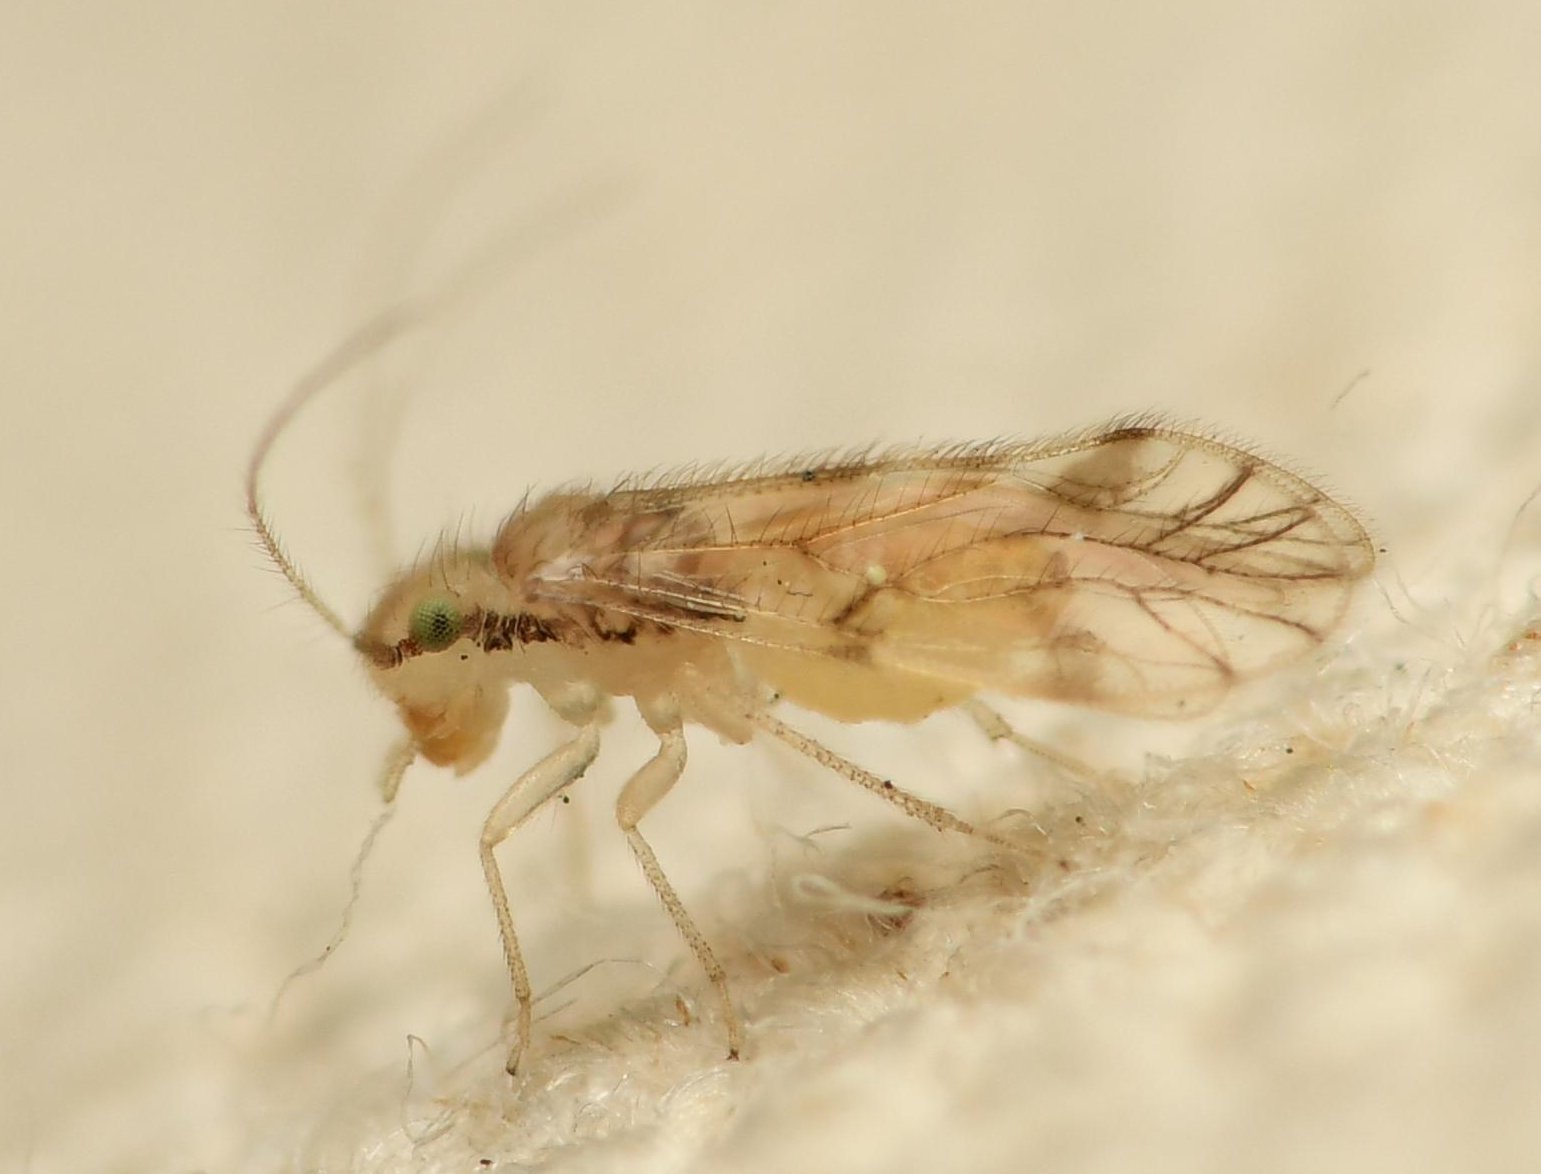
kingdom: Animalia
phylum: Arthropoda
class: Insecta
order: Psocodea
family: Pseudocaeciliidae
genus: Pseudocaecilius
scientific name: Pseudocaecilius tahitiensis
